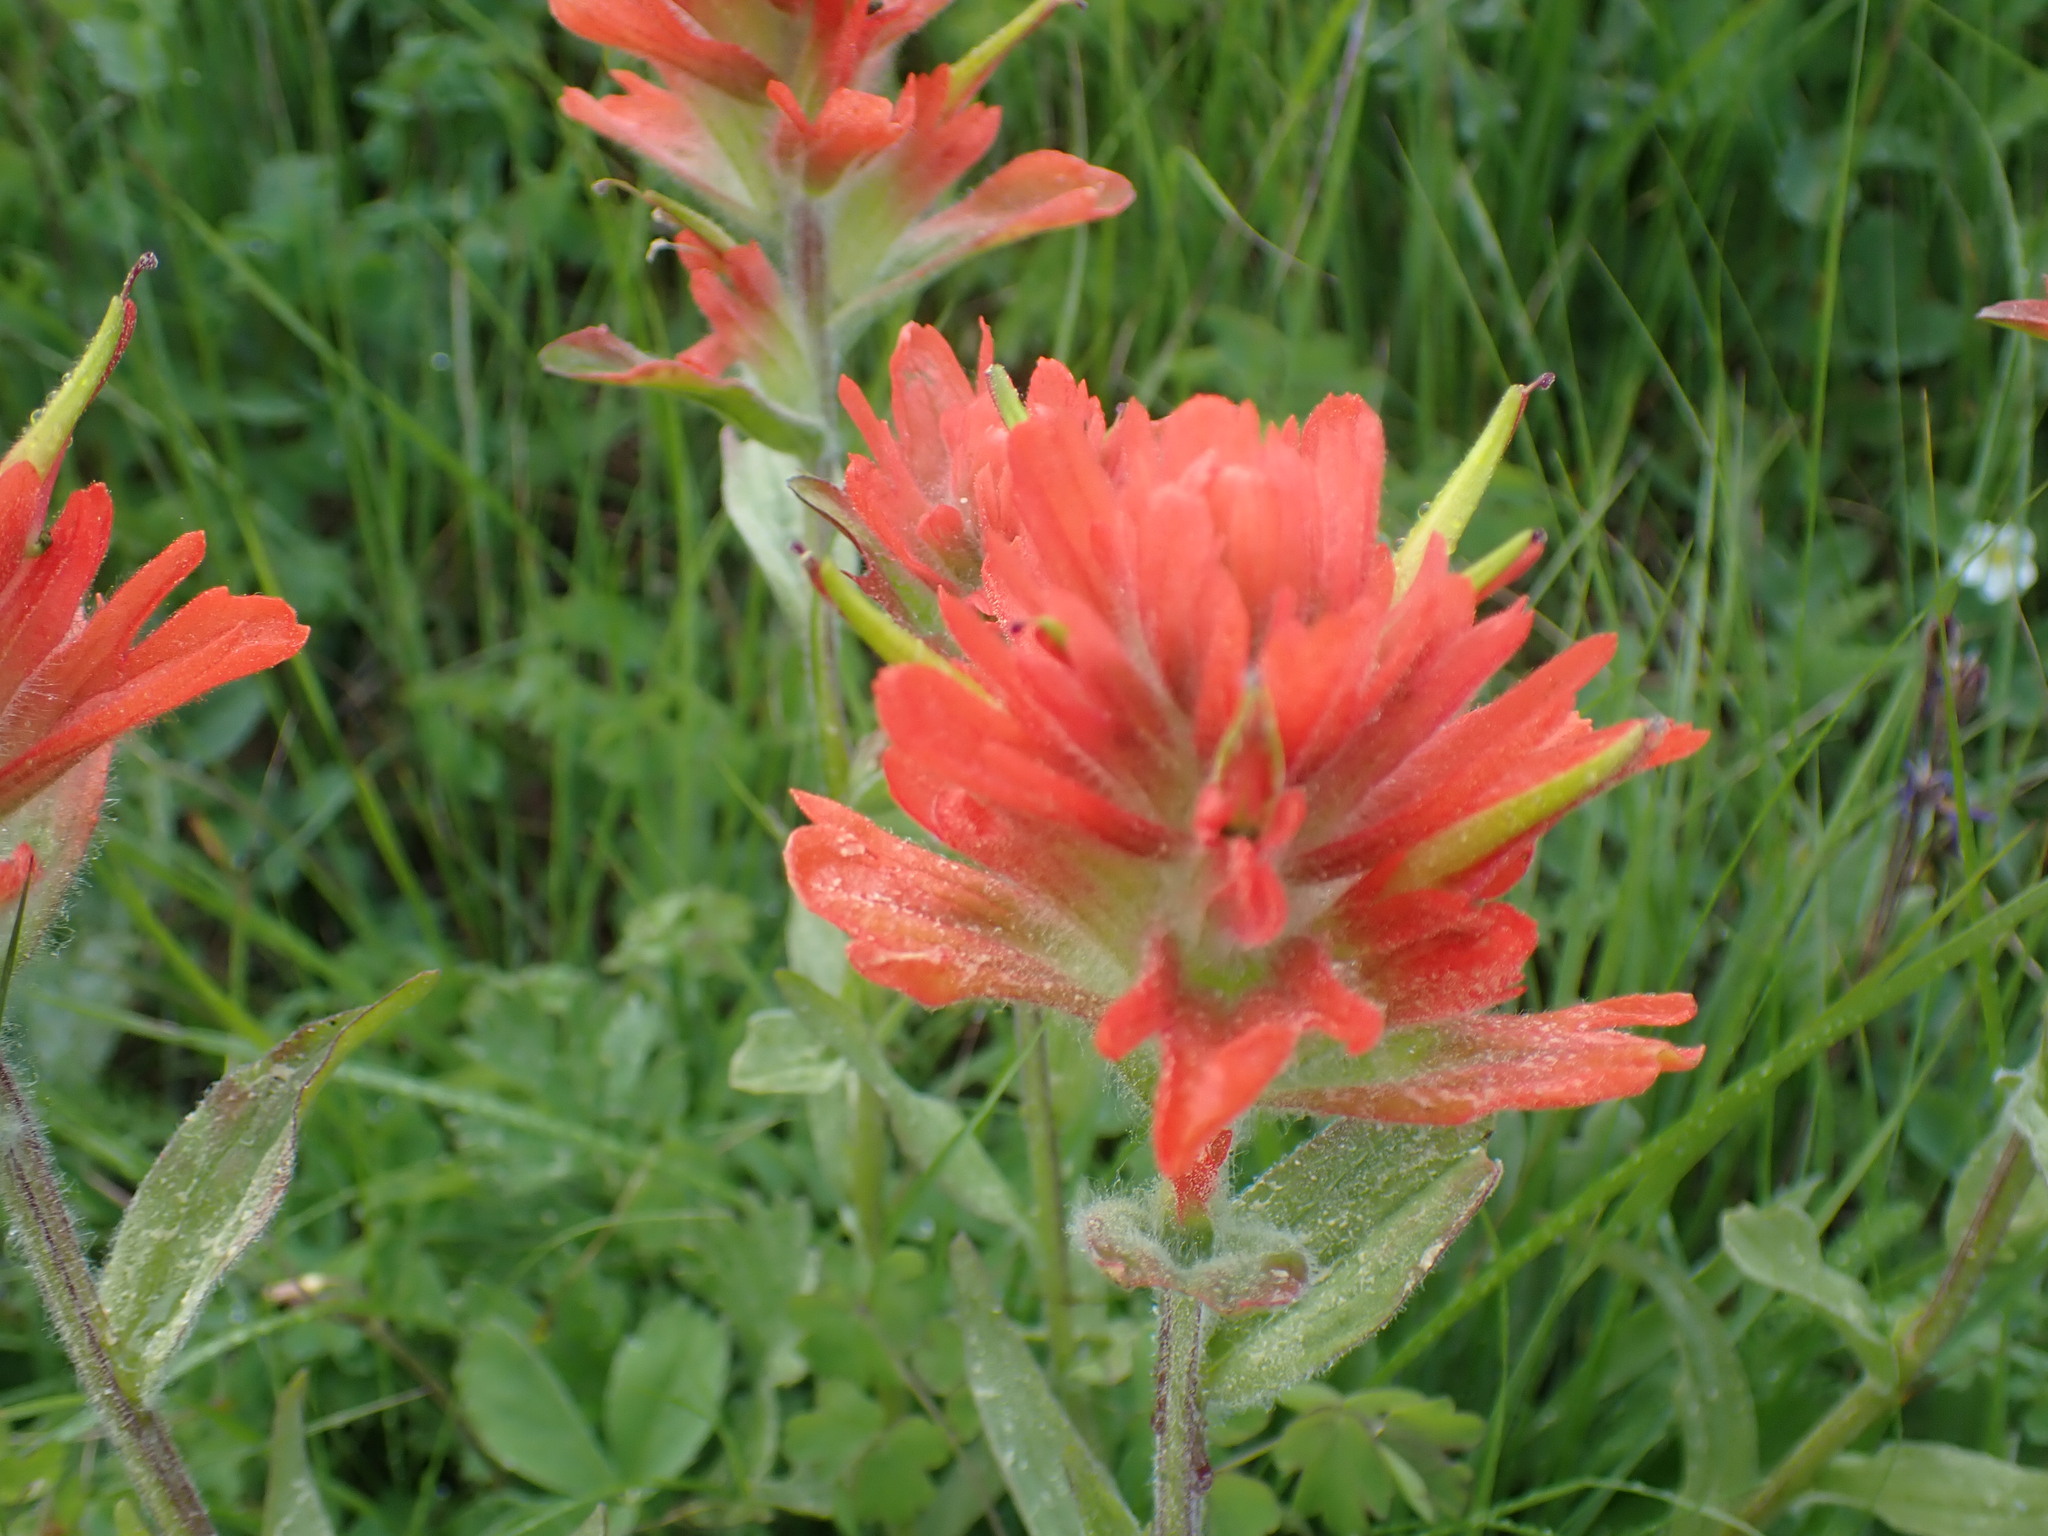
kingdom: Plantae
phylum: Tracheophyta
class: Magnoliopsida
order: Lamiales
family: Orobanchaceae
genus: Castilleja
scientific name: Castilleja miniata
